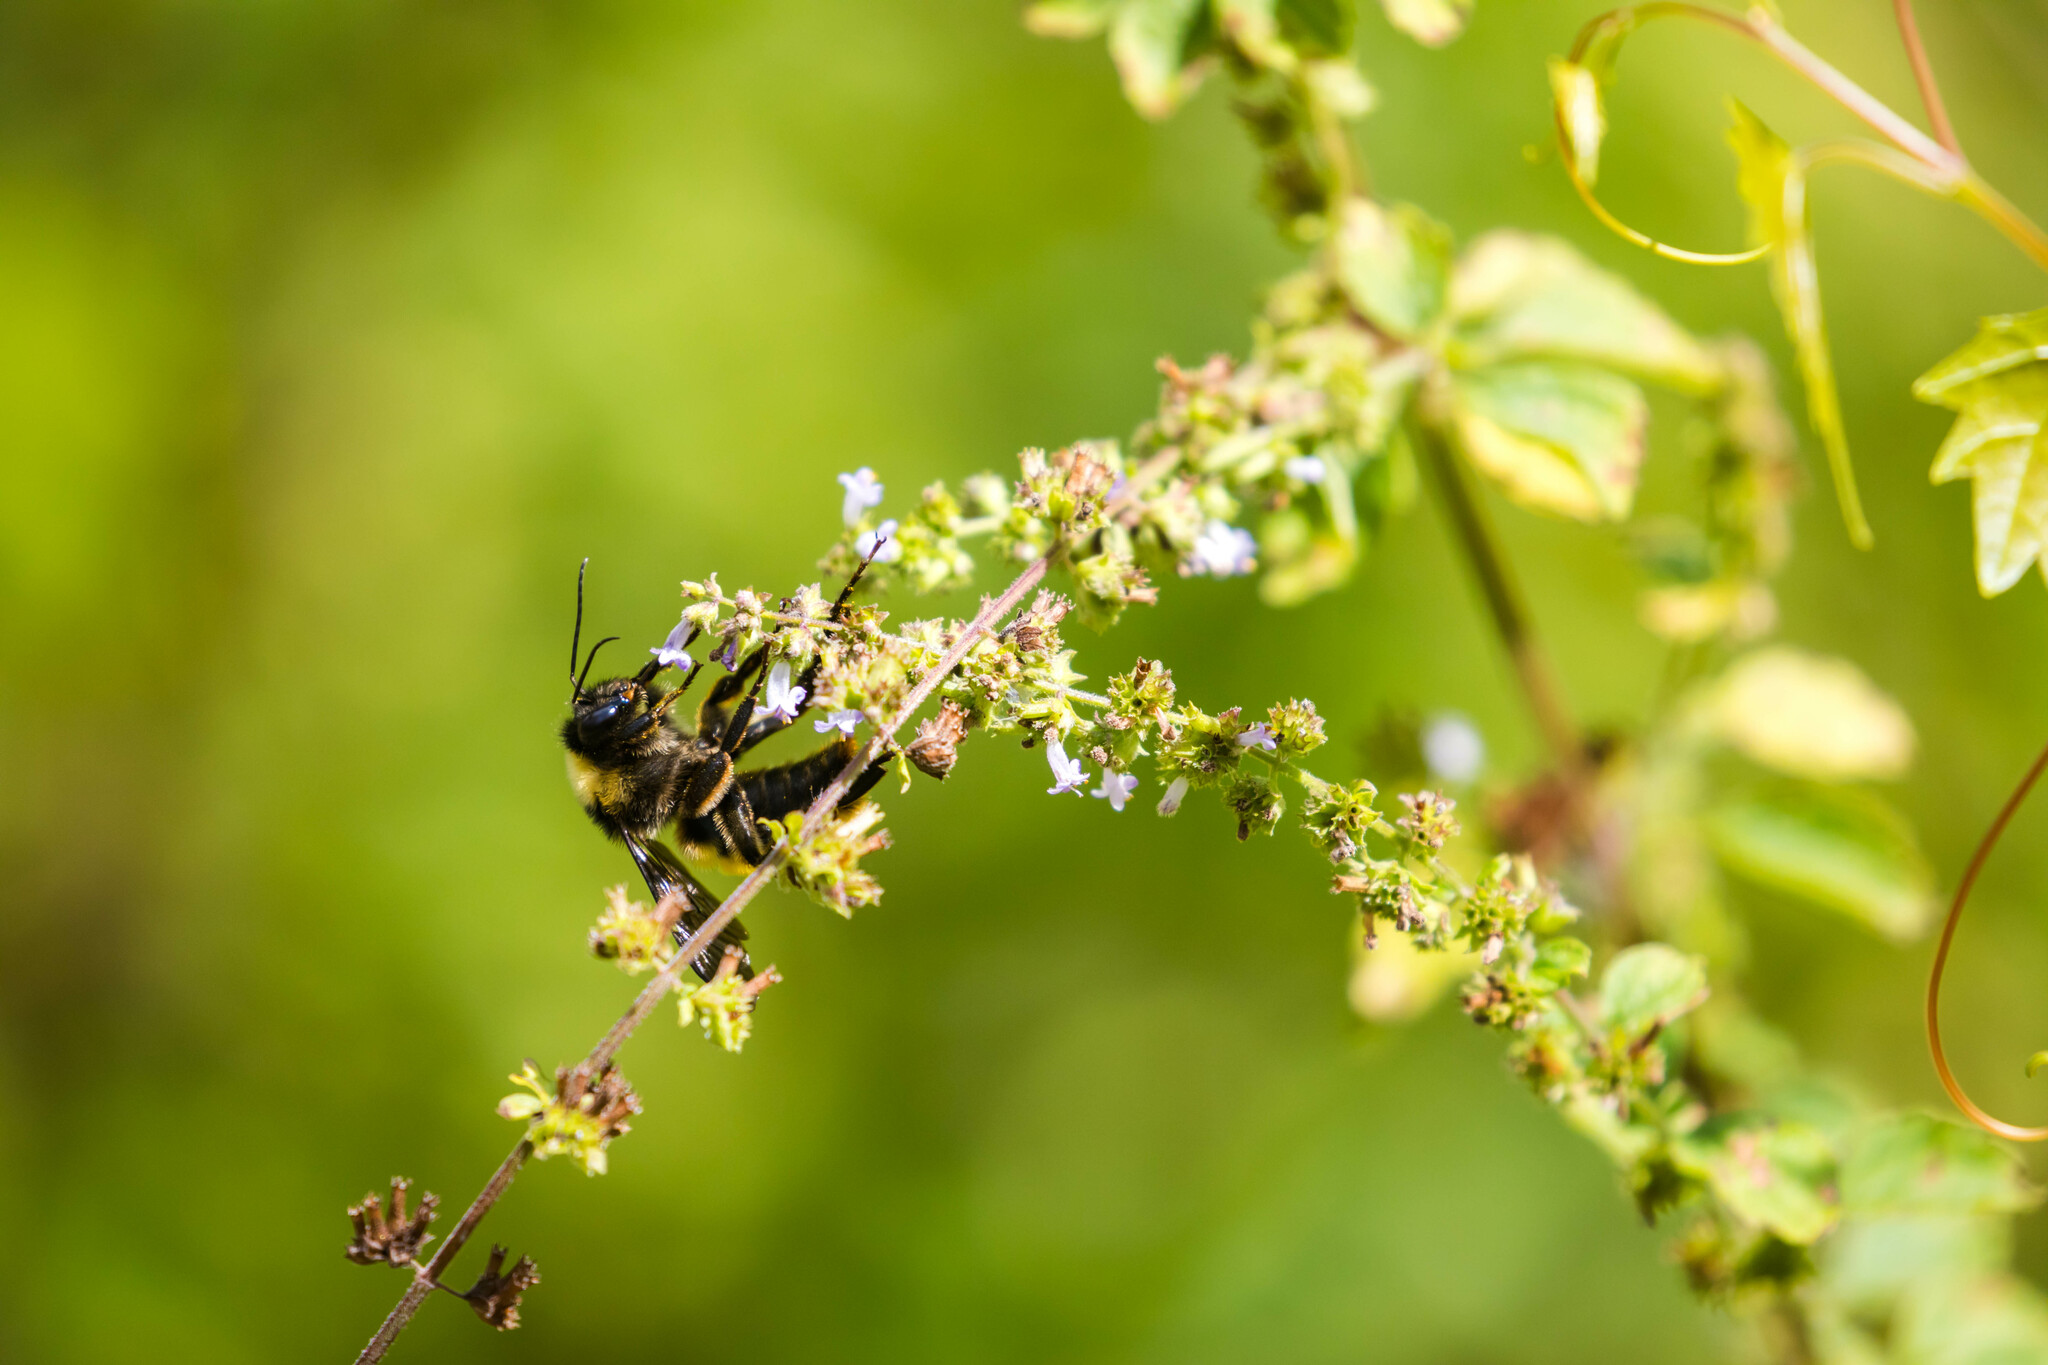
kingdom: Animalia
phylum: Arthropoda
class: Insecta
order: Hymenoptera
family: Apidae
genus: Bombus
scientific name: Bombus pensylvanicus
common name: Bumble bee
